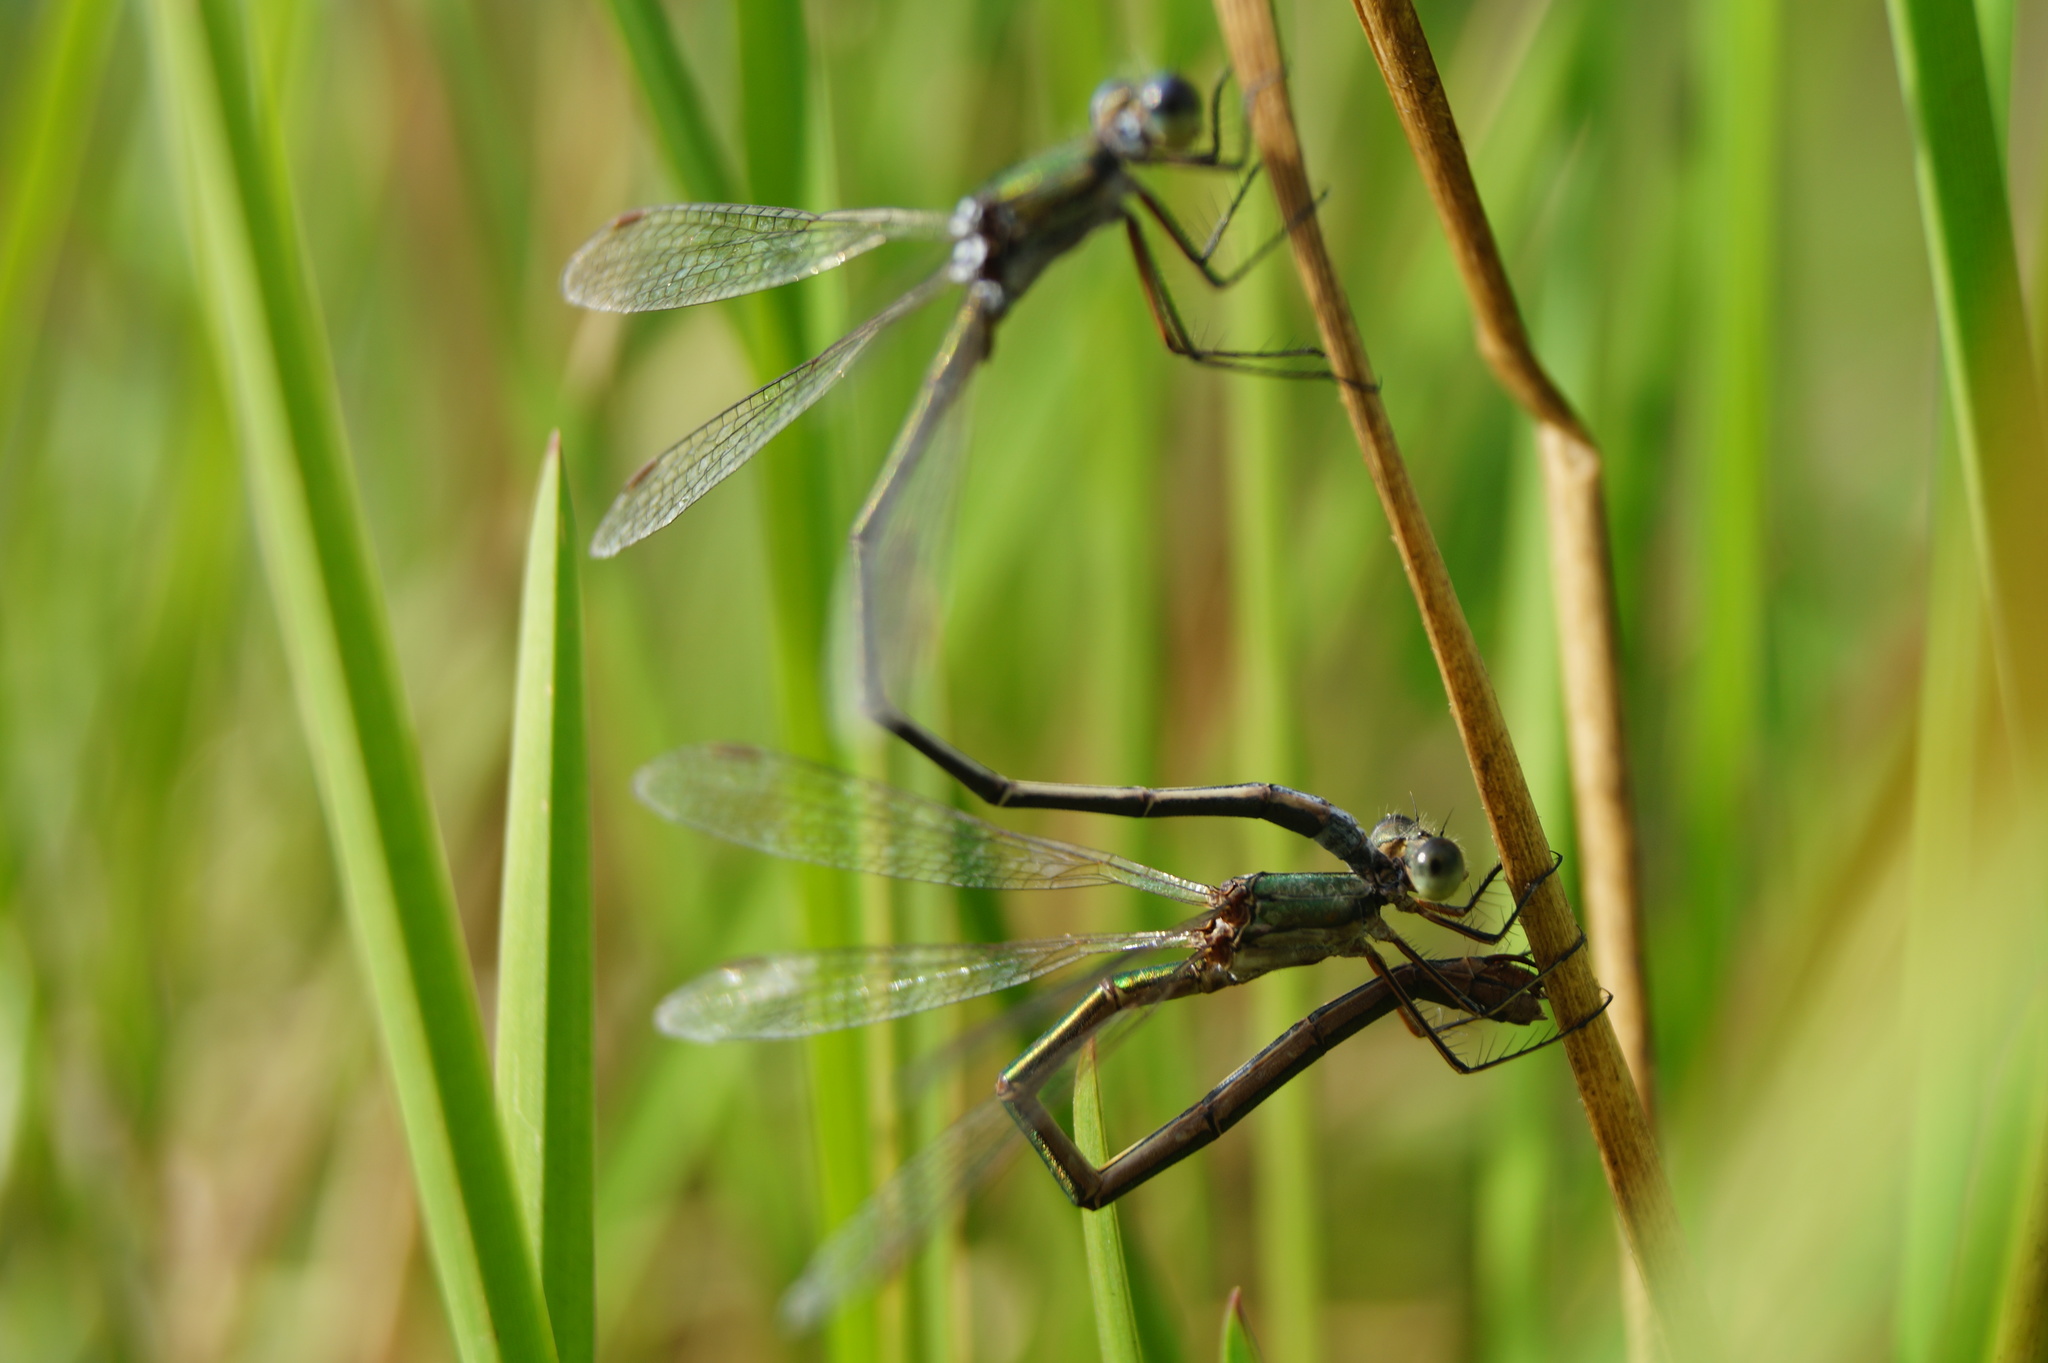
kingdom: Animalia
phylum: Arthropoda
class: Insecta
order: Odonata
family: Lestidae
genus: Lestes
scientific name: Lestes virens
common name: Small emerald spreadwing
